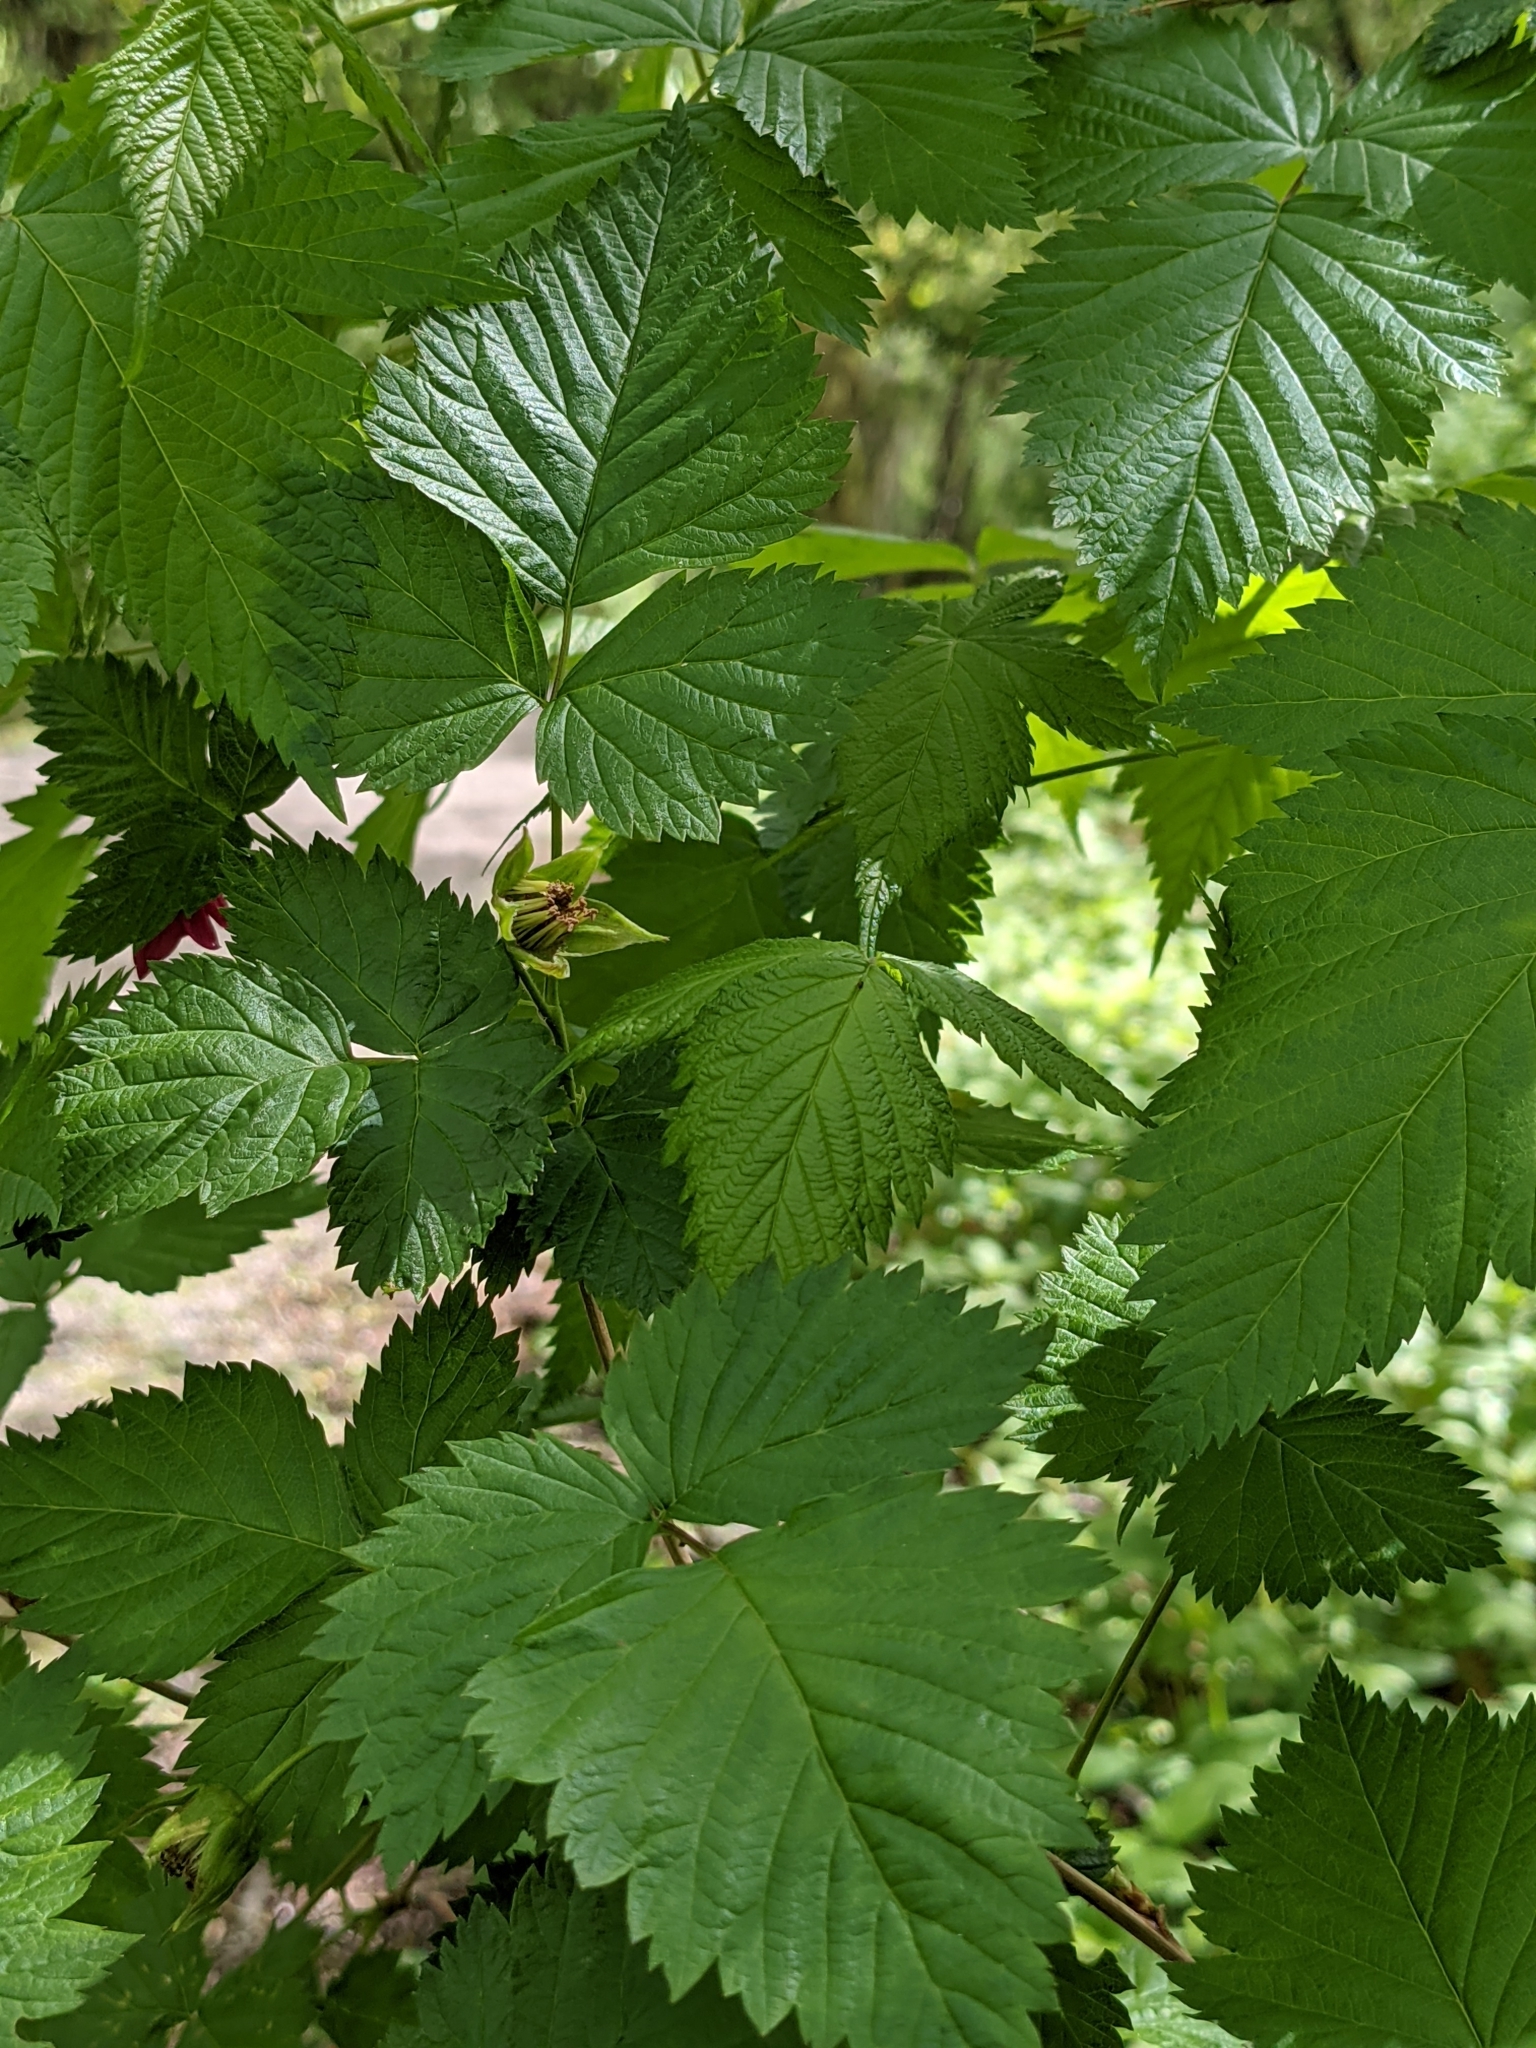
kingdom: Plantae
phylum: Tracheophyta
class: Magnoliopsida
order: Rosales
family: Rosaceae
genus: Rubus
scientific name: Rubus spectabilis
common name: Salmonberry
